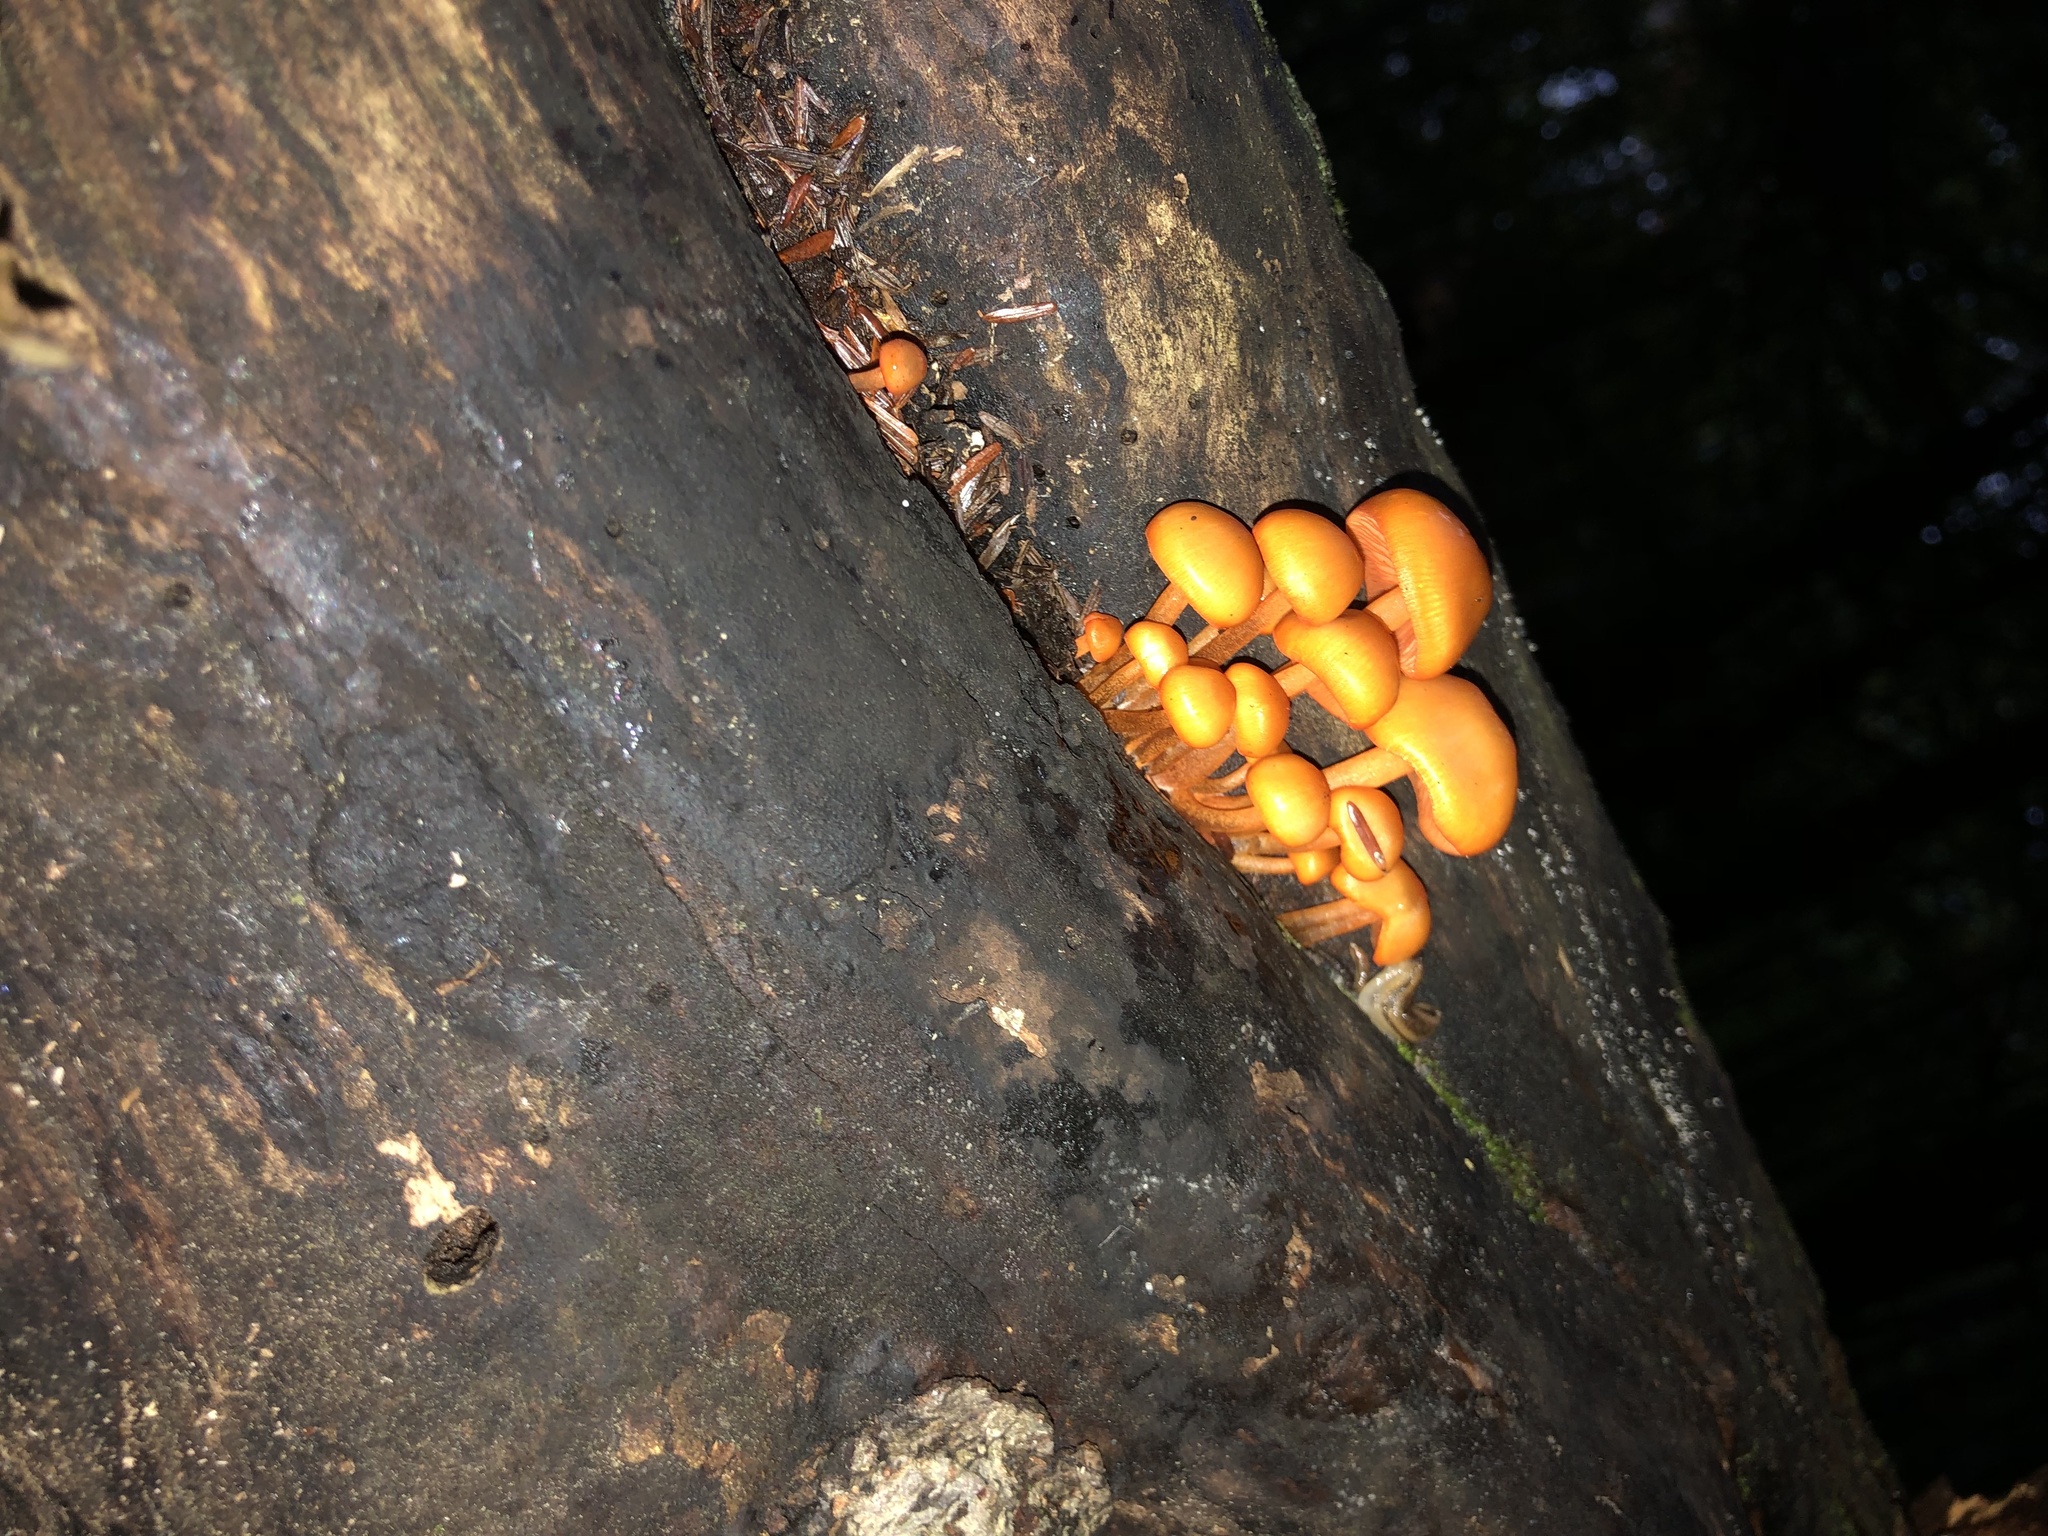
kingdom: Fungi
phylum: Basidiomycota
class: Agaricomycetes
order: Agaricales
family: Mycenaceae
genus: Mycena
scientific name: Mycena leaiana
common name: Orange mycena
